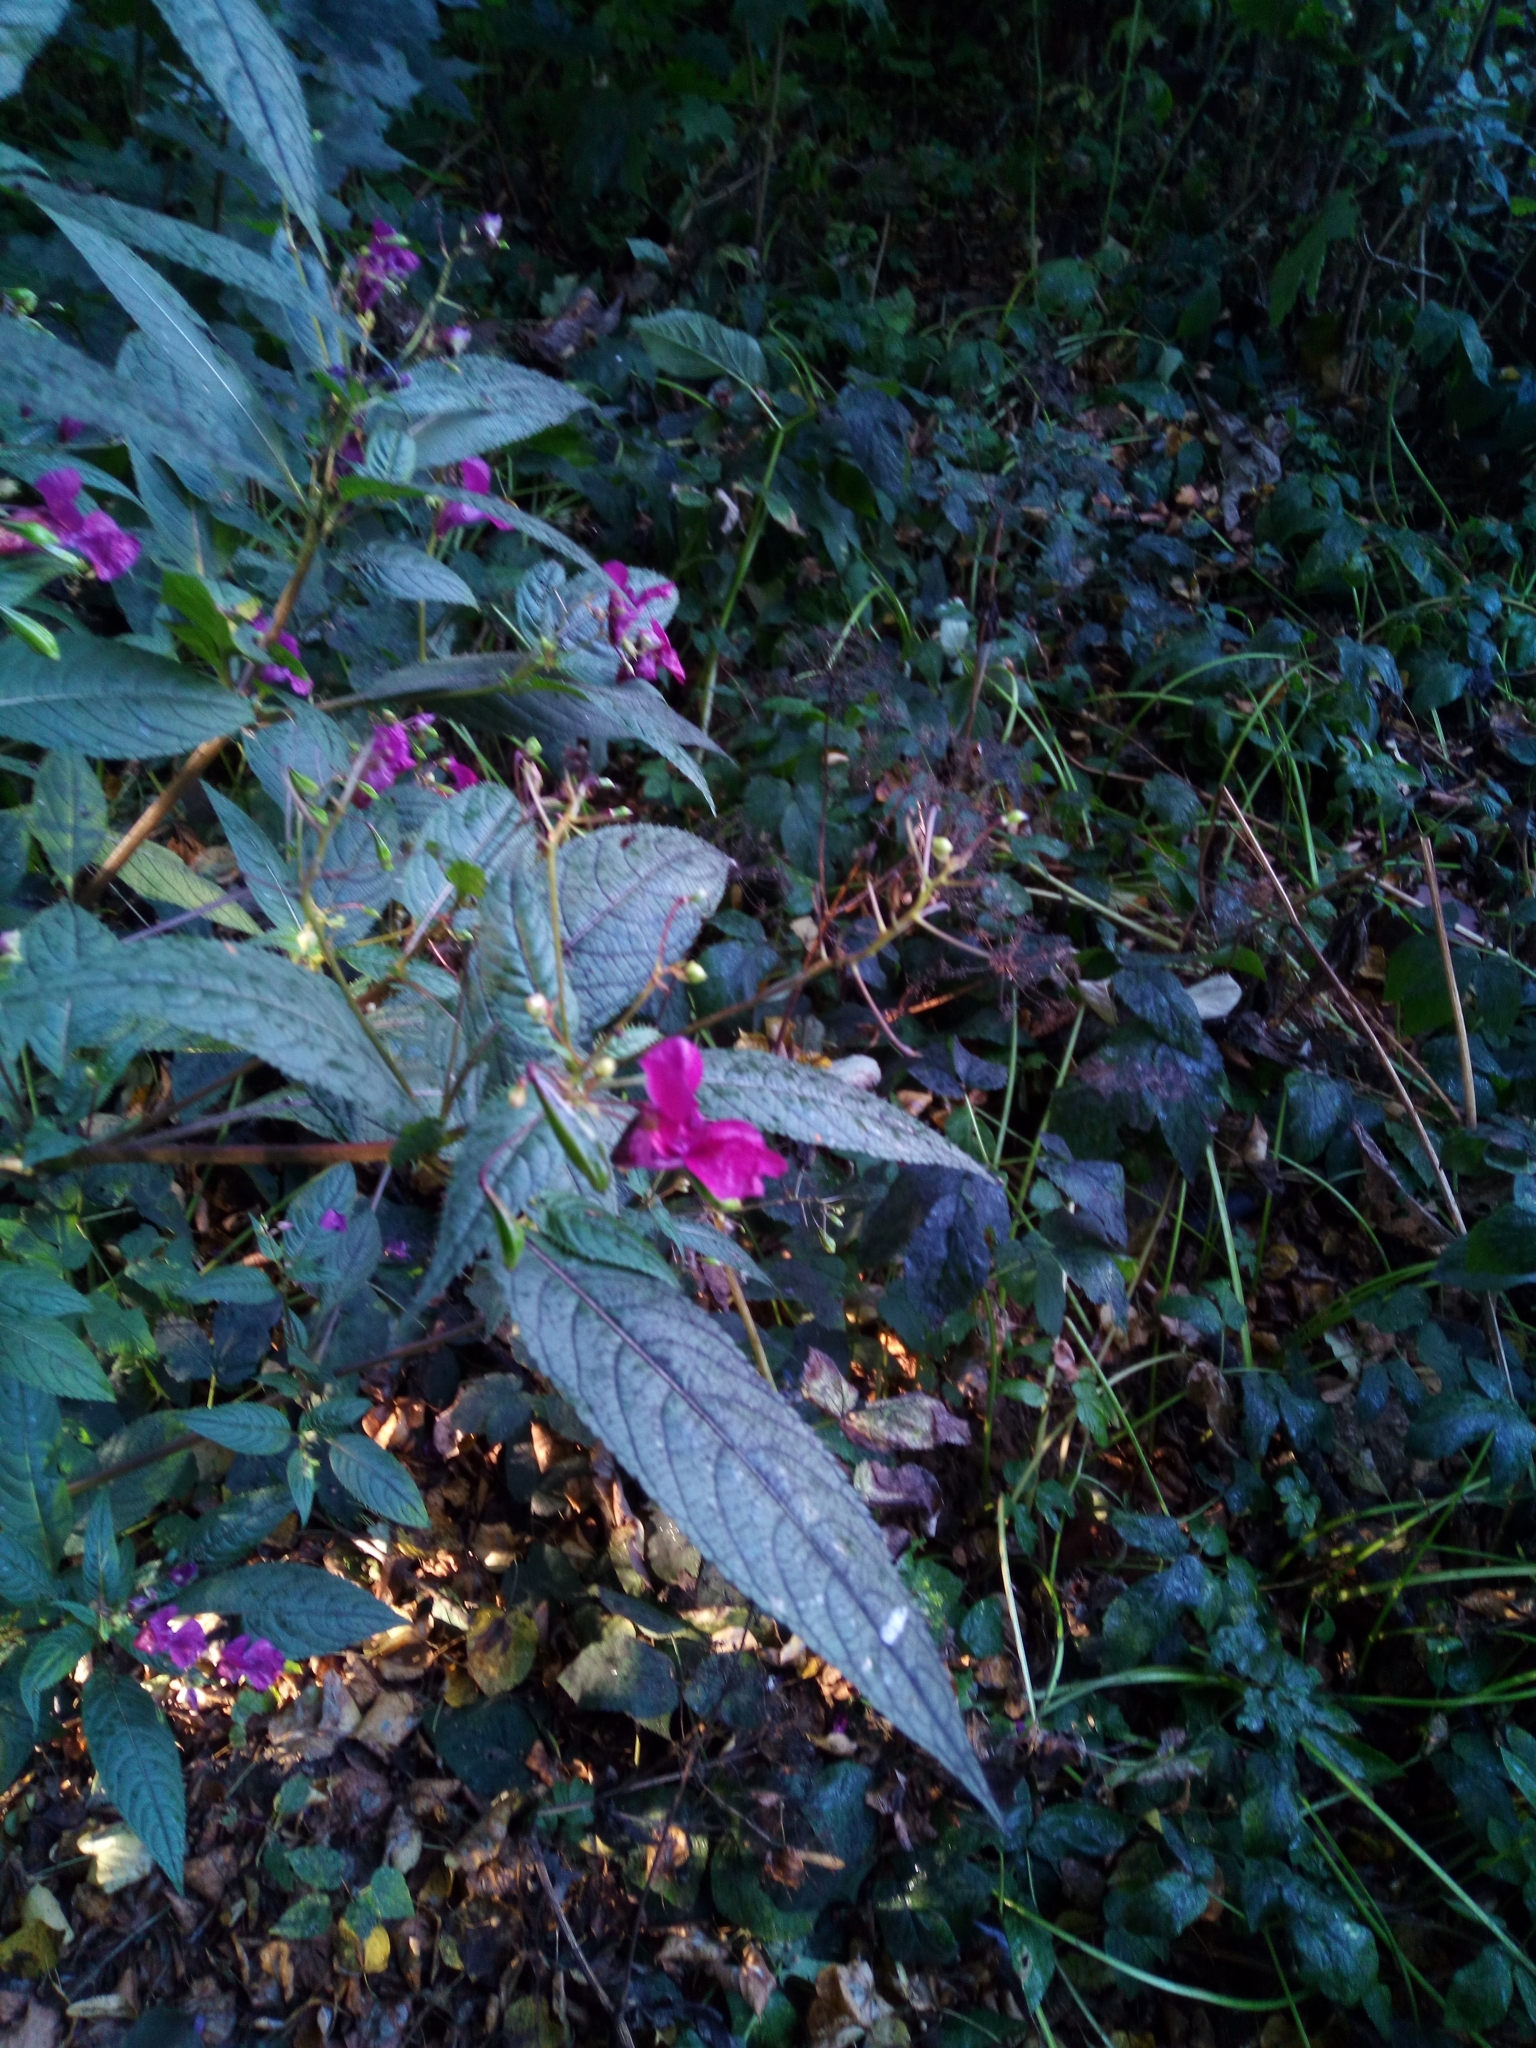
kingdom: Plantae
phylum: Tracheophyta
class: Magnoliopsida
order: Ericales
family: Balsaminaceae
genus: Impatiens
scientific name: Impatiens glandulifera
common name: Himalayan balsam
